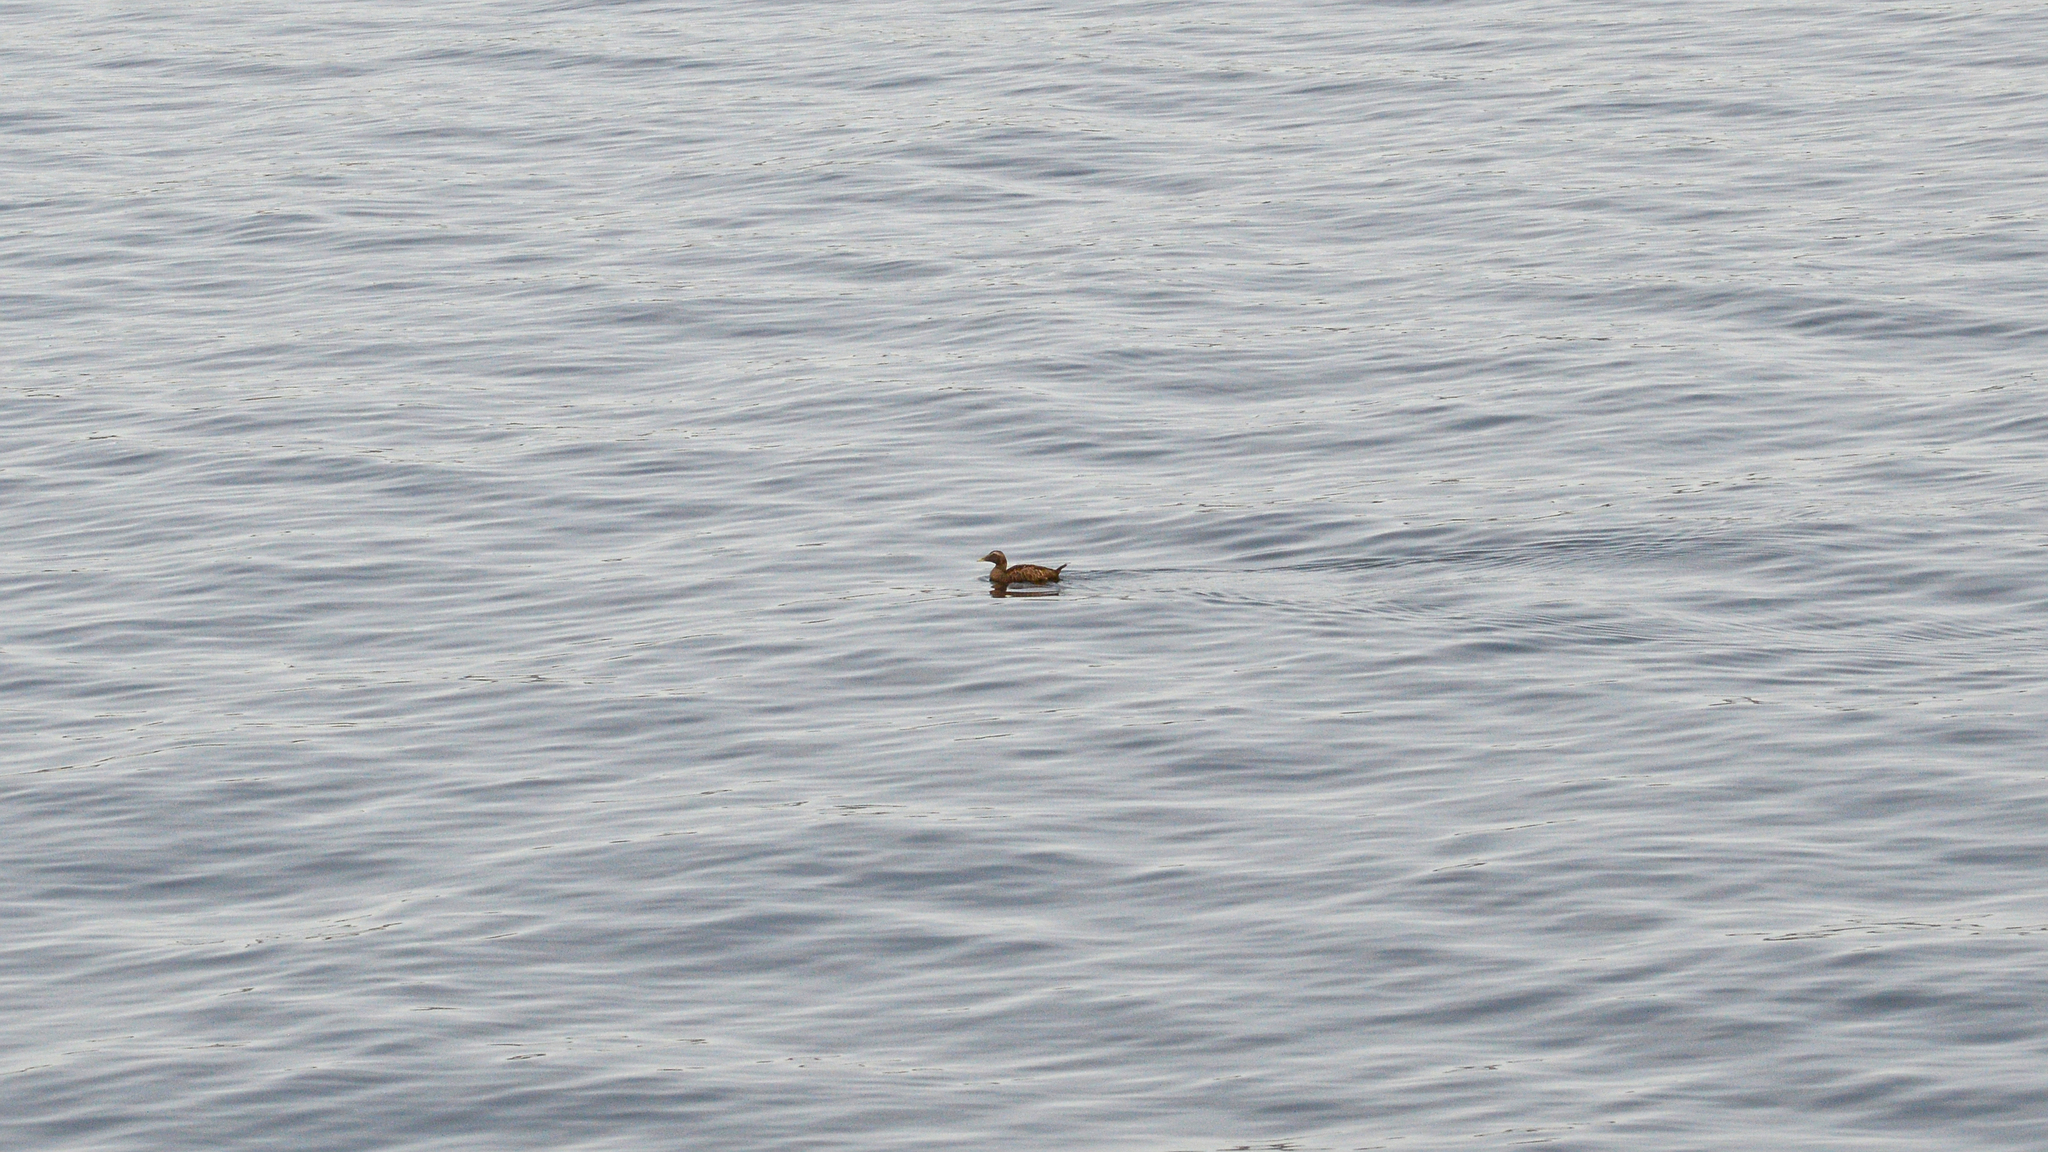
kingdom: Animalia
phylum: Chordata
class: Aves
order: Anseriformes
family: Anatidae
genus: Somateria
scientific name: Somateria mollissima
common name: Common eider
